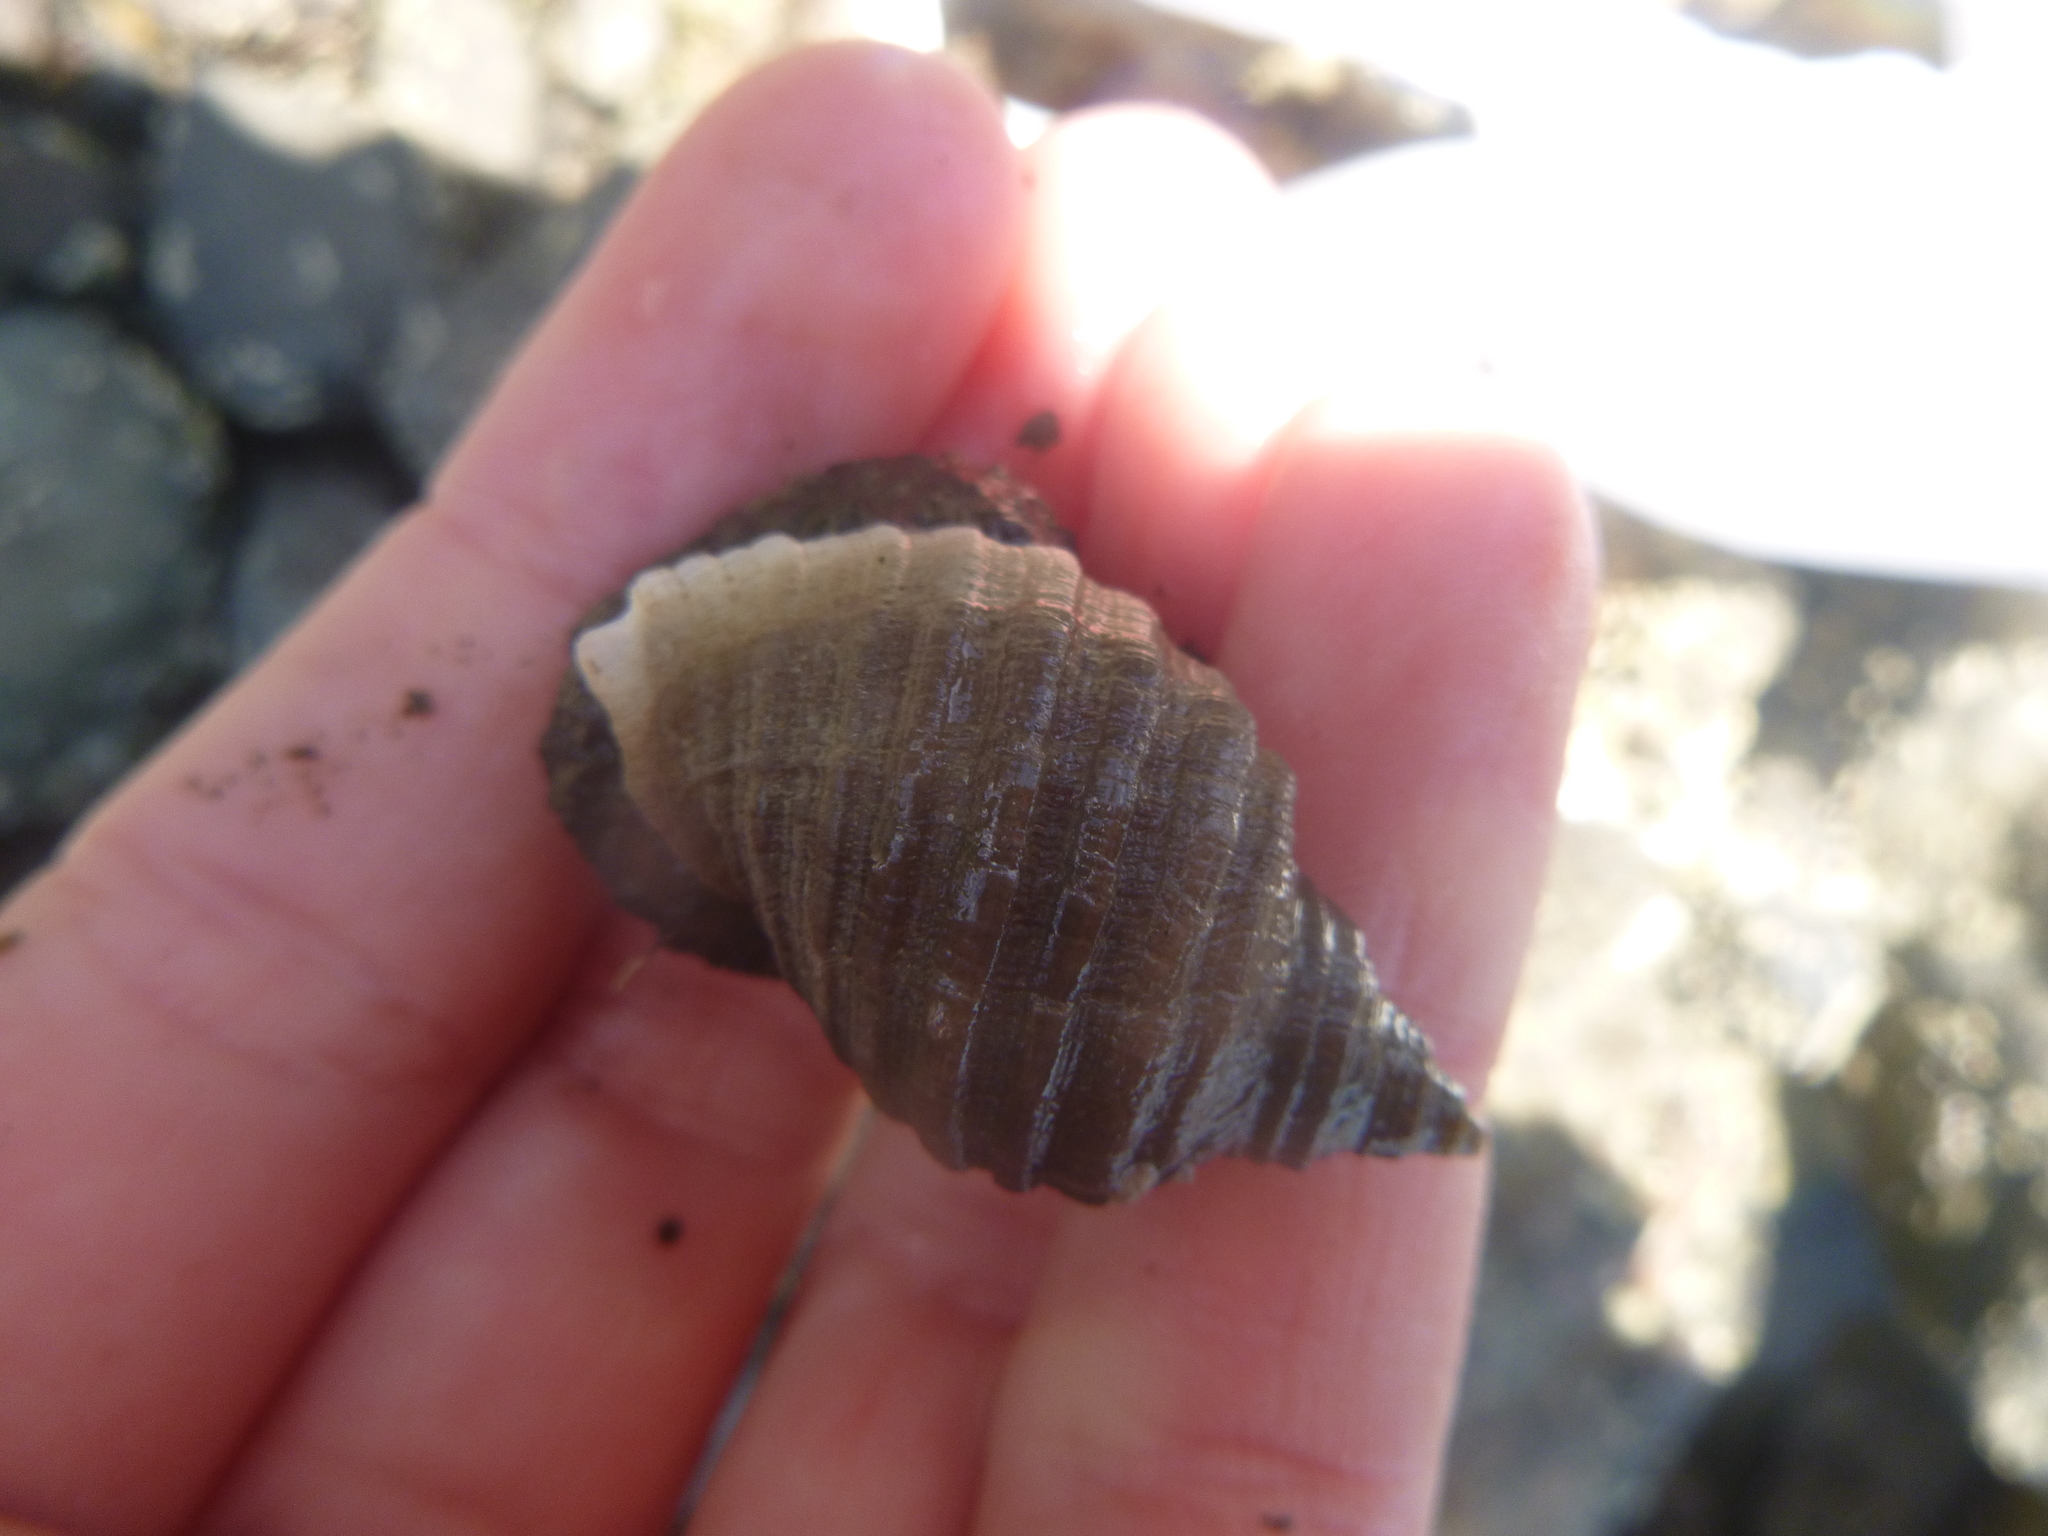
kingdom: Animalia
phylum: Mollusca
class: Gastropoda
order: Neogastropoda
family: Muricidae
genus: Dicathais
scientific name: Dicathais orbita
